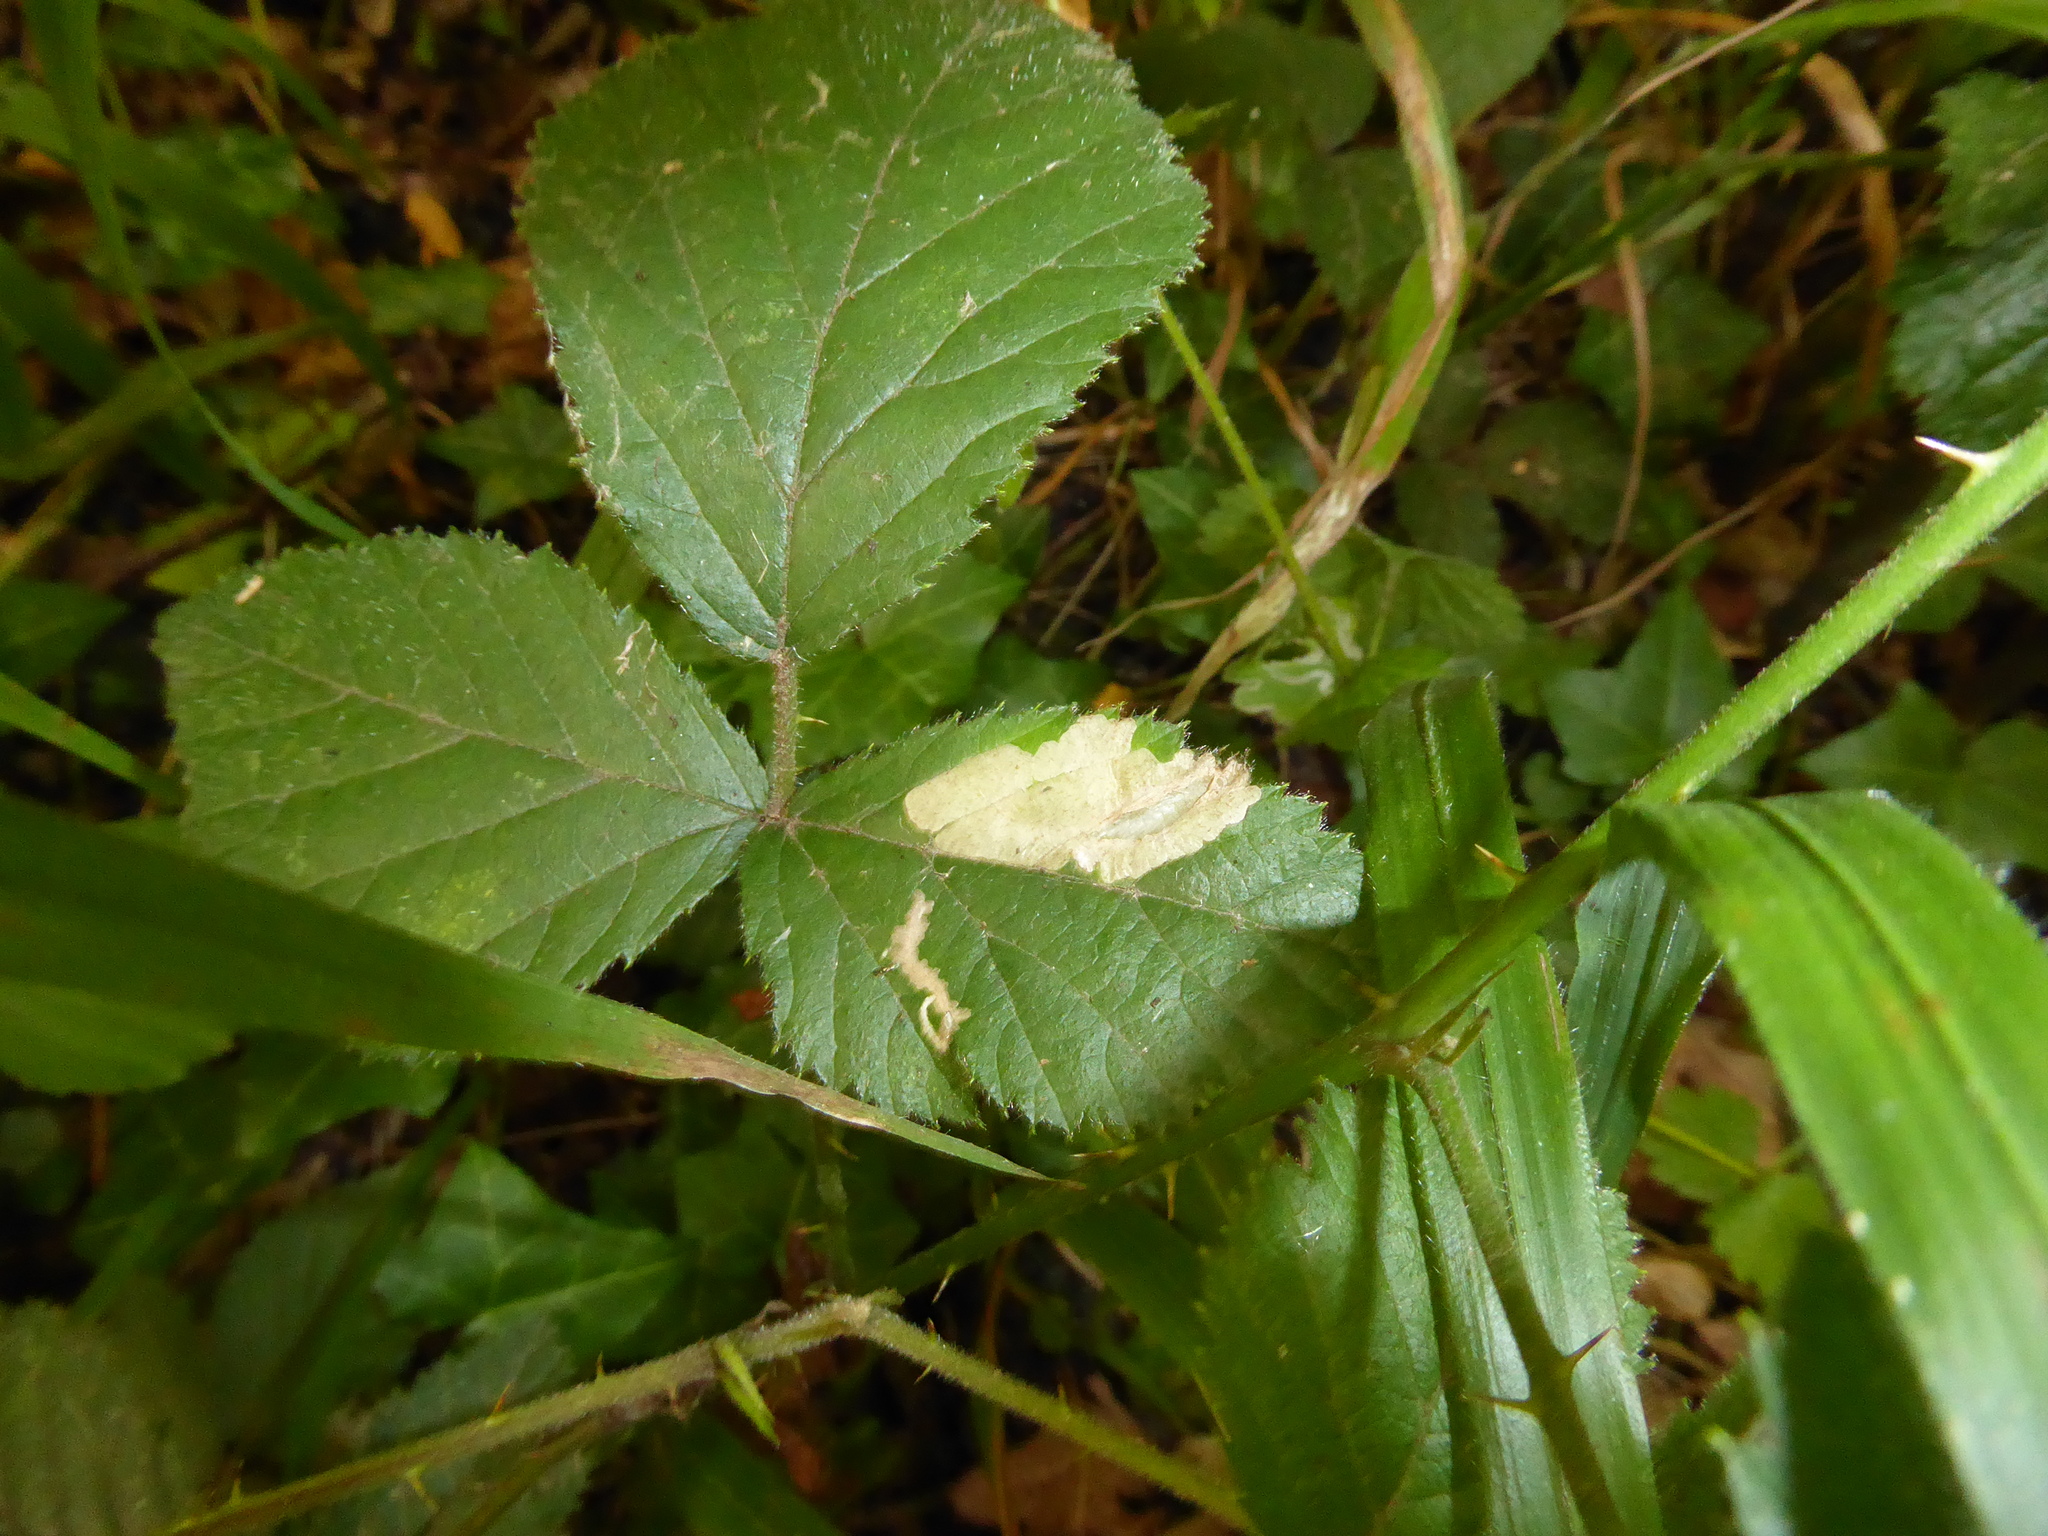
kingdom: Animalia
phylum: Arthropoda
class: Insecta
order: Lepidoptera
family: Tischeriidae
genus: Coptotriche
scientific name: Coptotriche marginea
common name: Bordered carl
